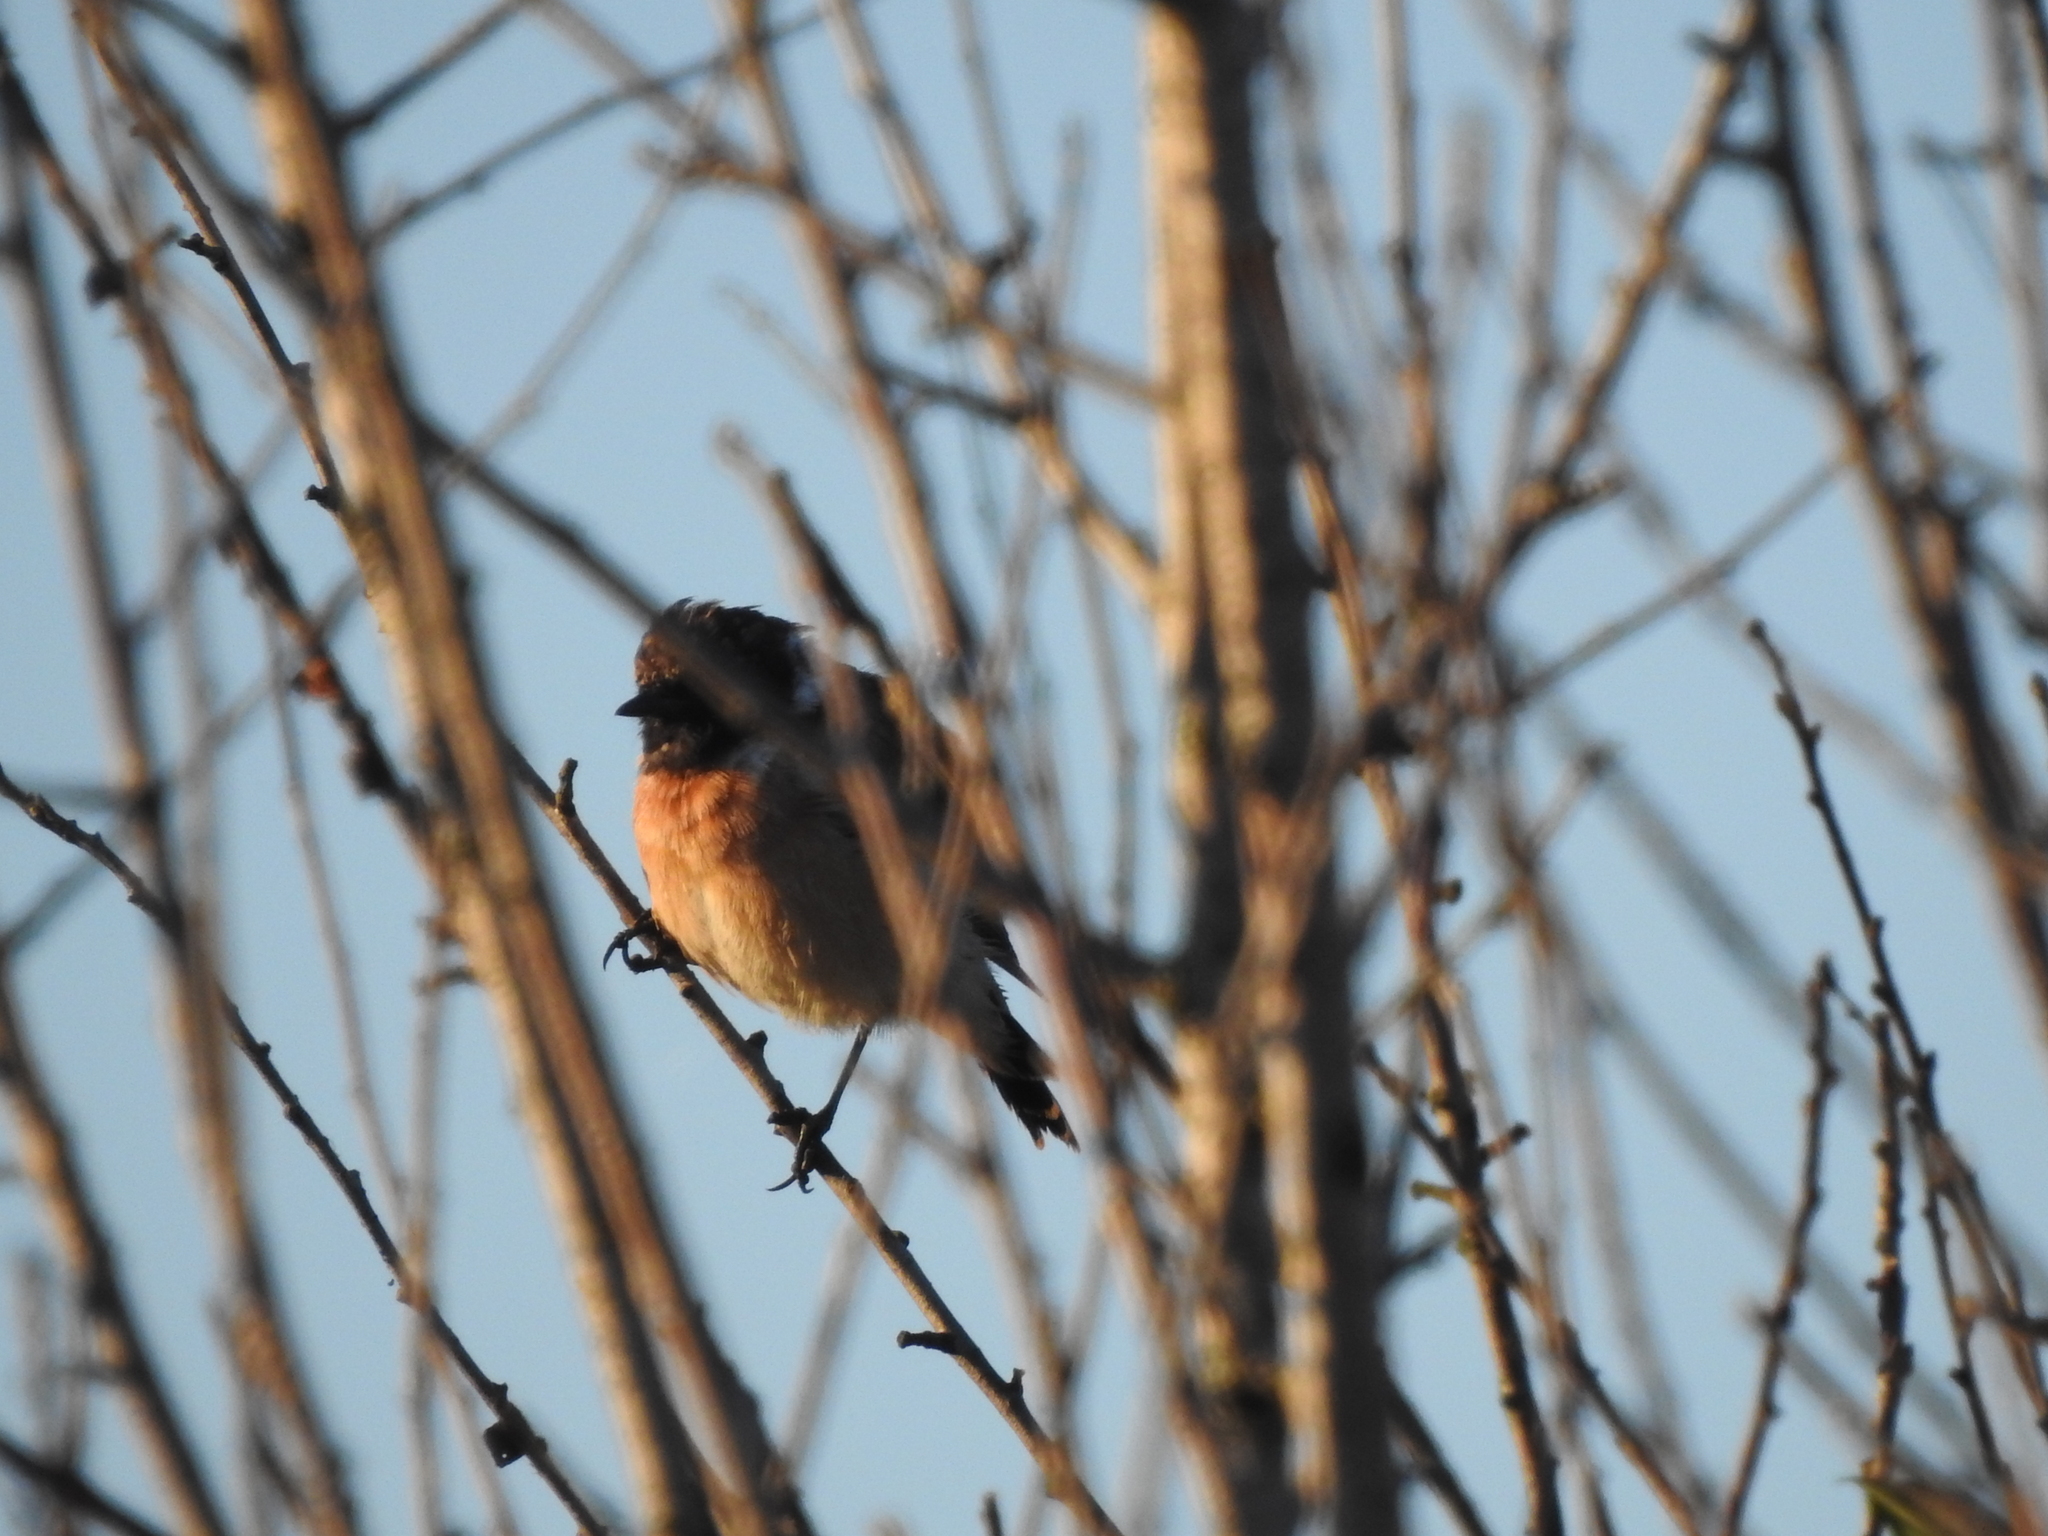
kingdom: Animalia
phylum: Chordata
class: Aves
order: Passeriformes
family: Muscicapidae
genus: Saxicola
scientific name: Saxicola maurus
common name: Siberian stonechat
